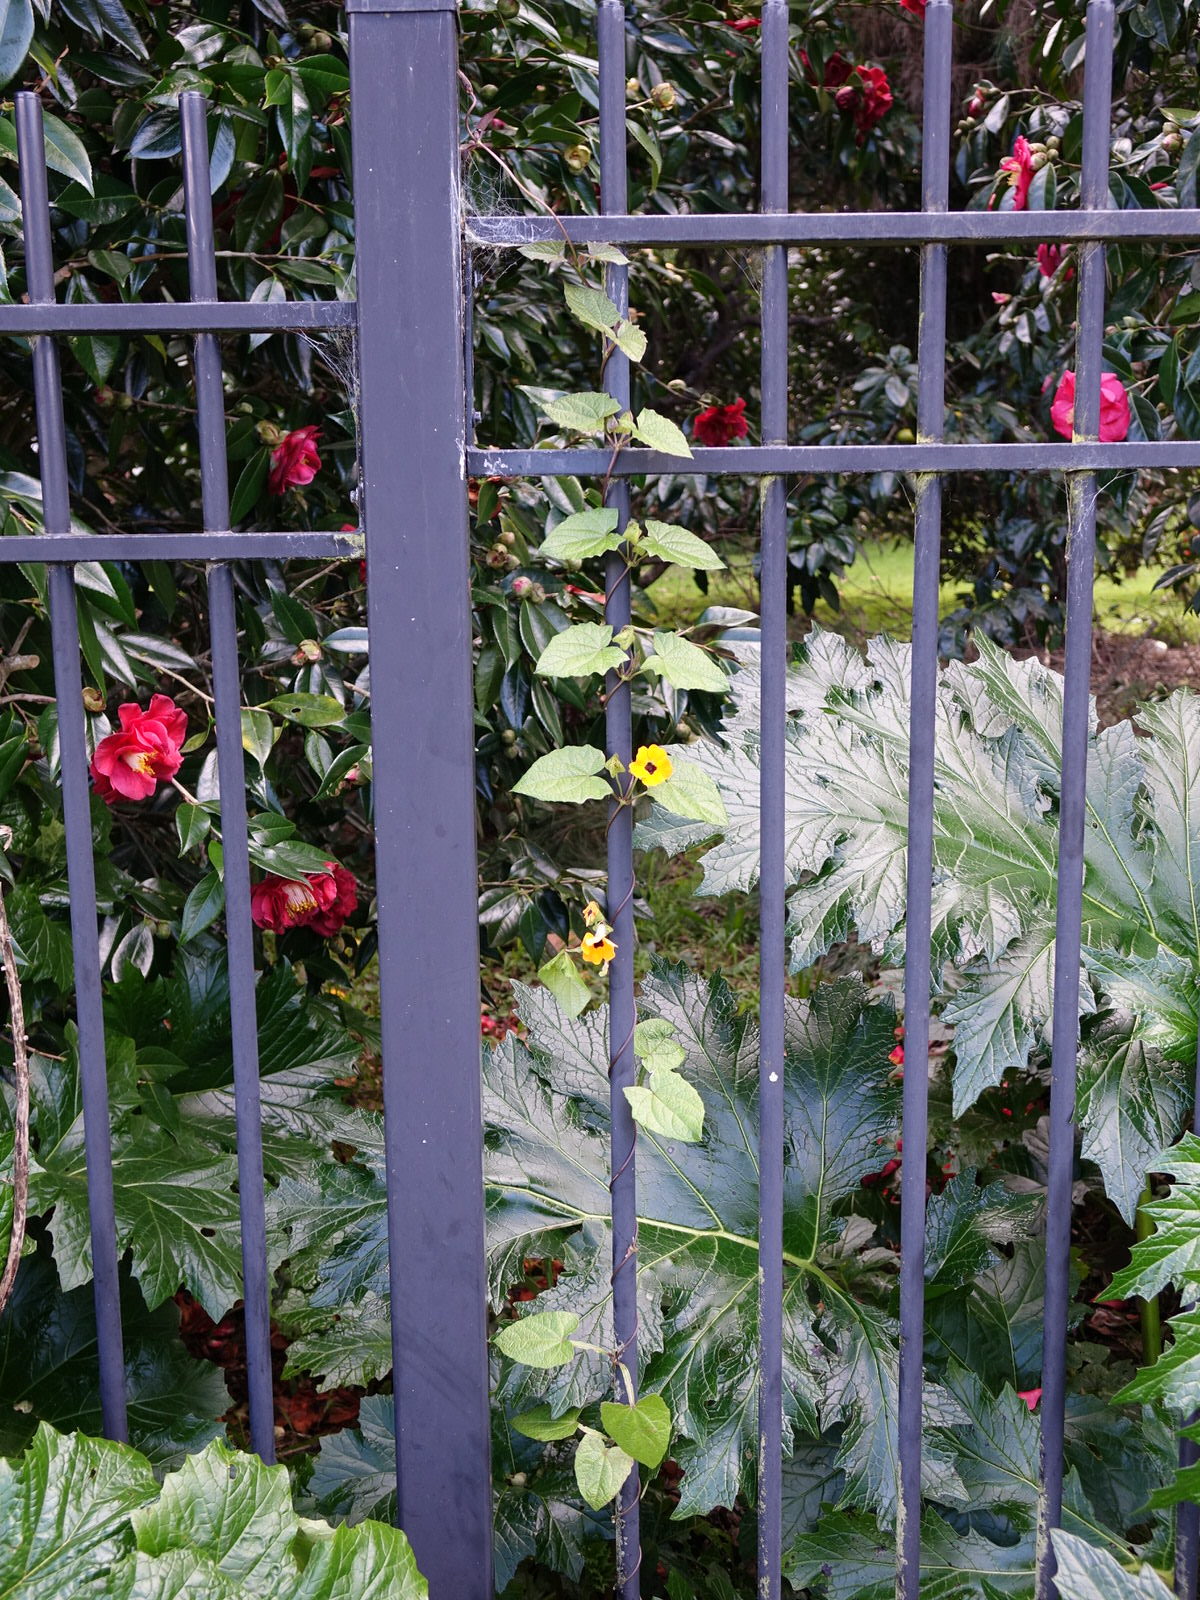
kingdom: Plantae
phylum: Tracheophyta
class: Magnoliopsida
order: Lamiales
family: Acanthaceae
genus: Thunbergia
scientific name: Thunbergia alata
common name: Blackeyed susan vine
